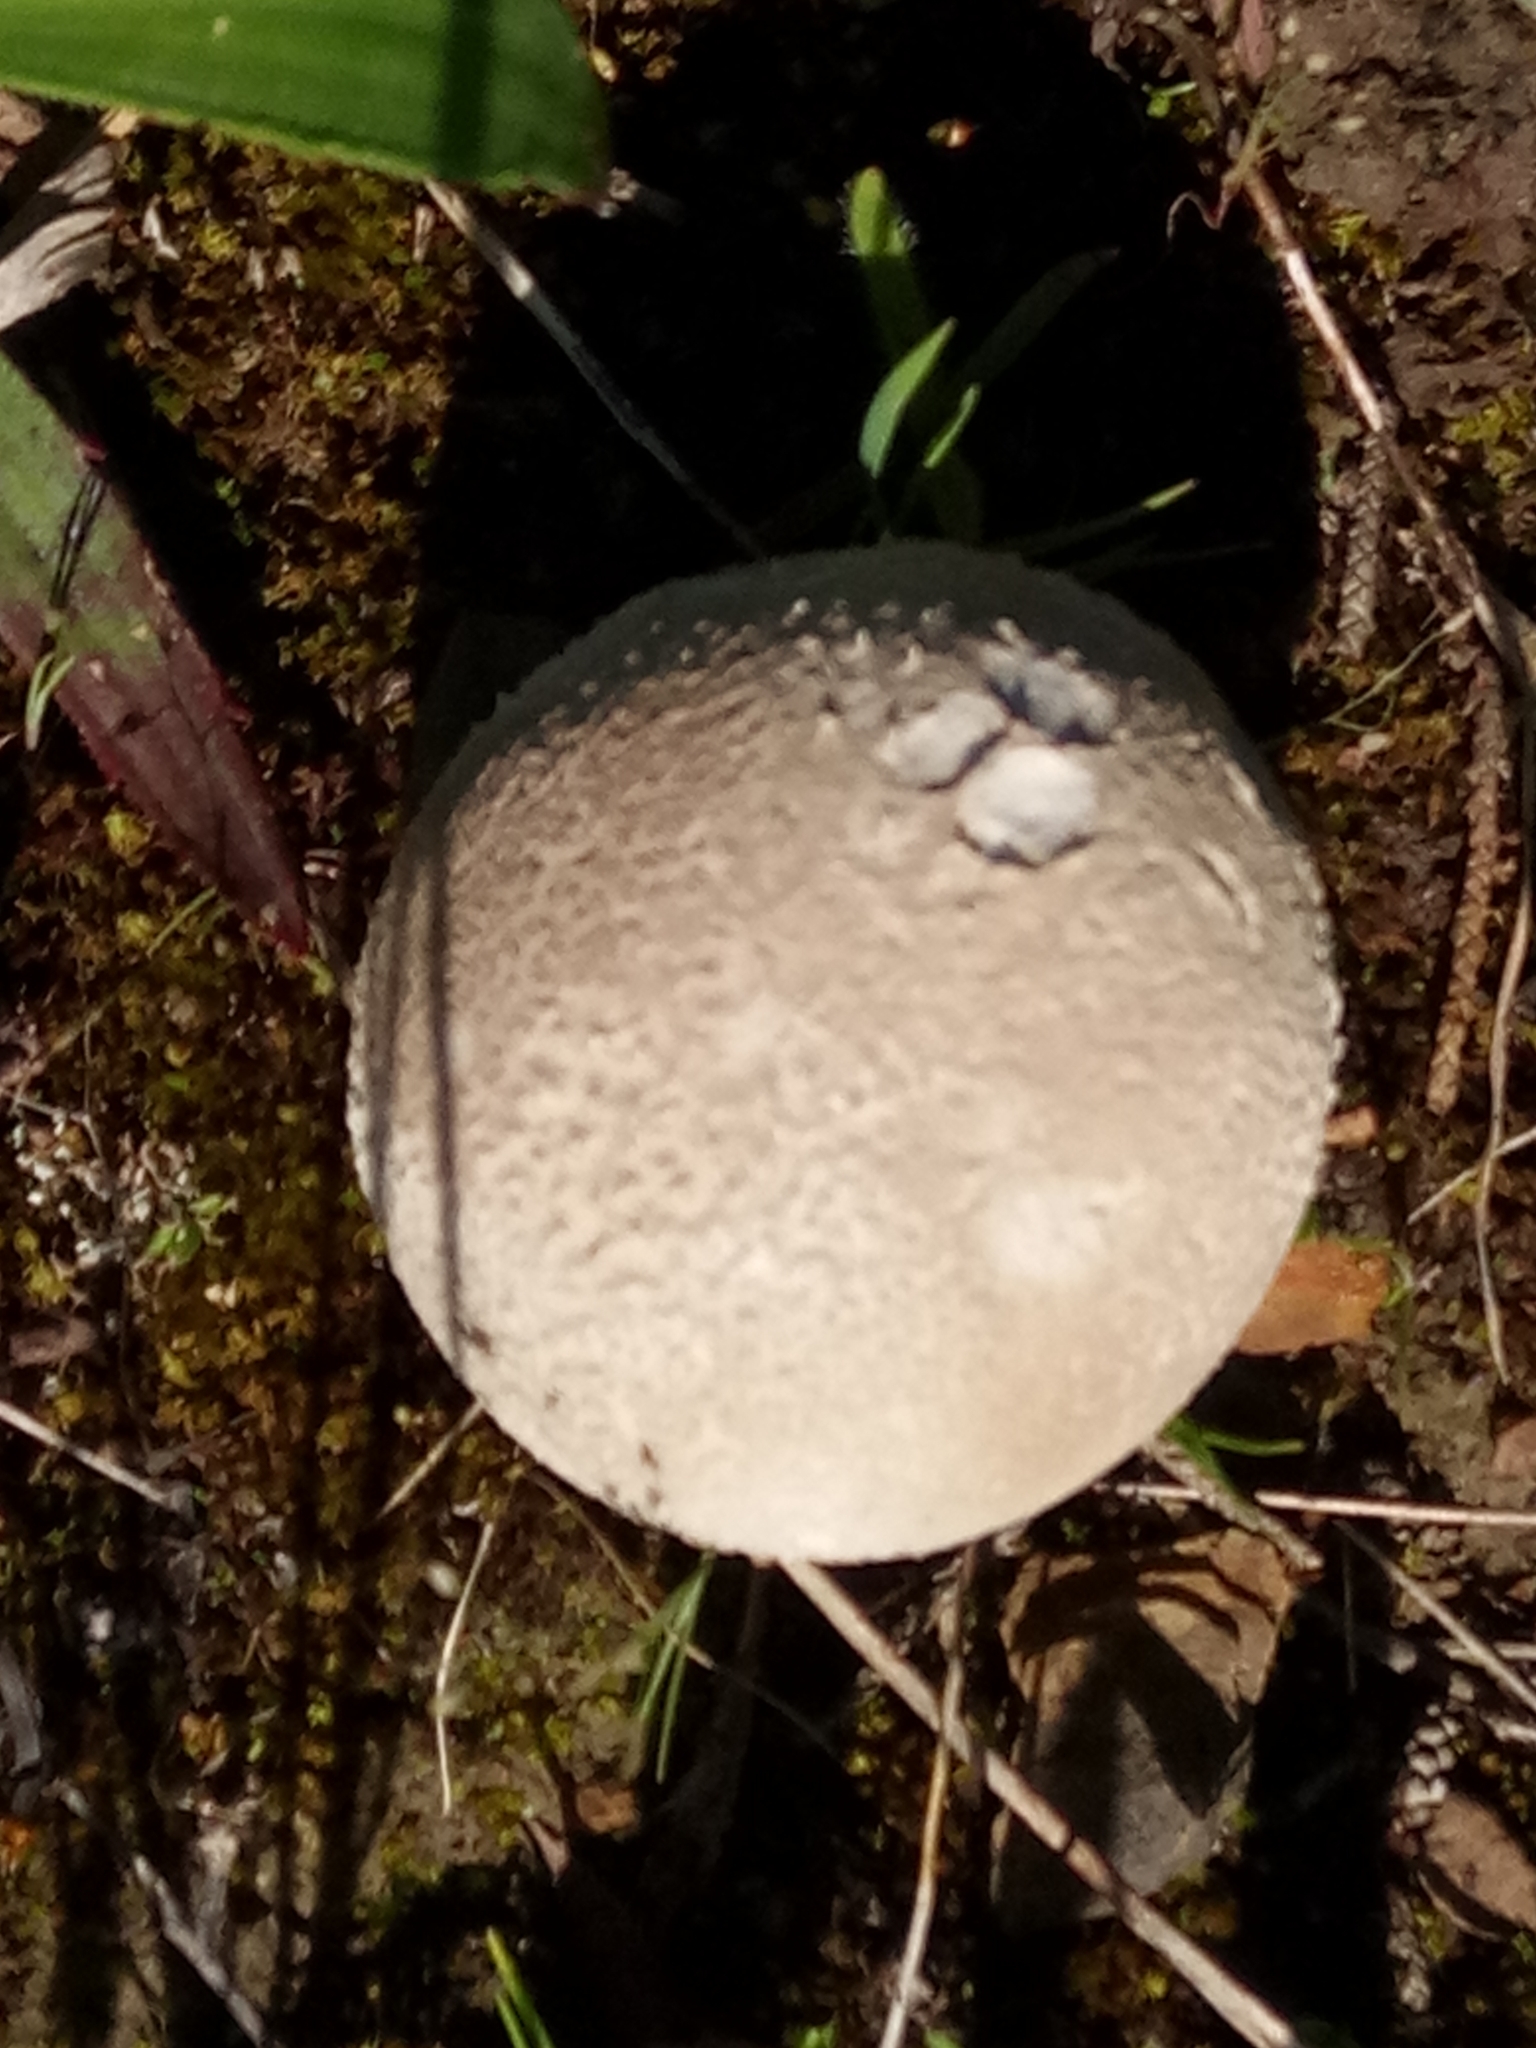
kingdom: Fungi
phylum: Basidiomycota
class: Agaricomycetes
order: Agaricales
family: Lycoperdaceae
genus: Lycoperdon
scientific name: Lycoperdon perlatum
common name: Common puffball
